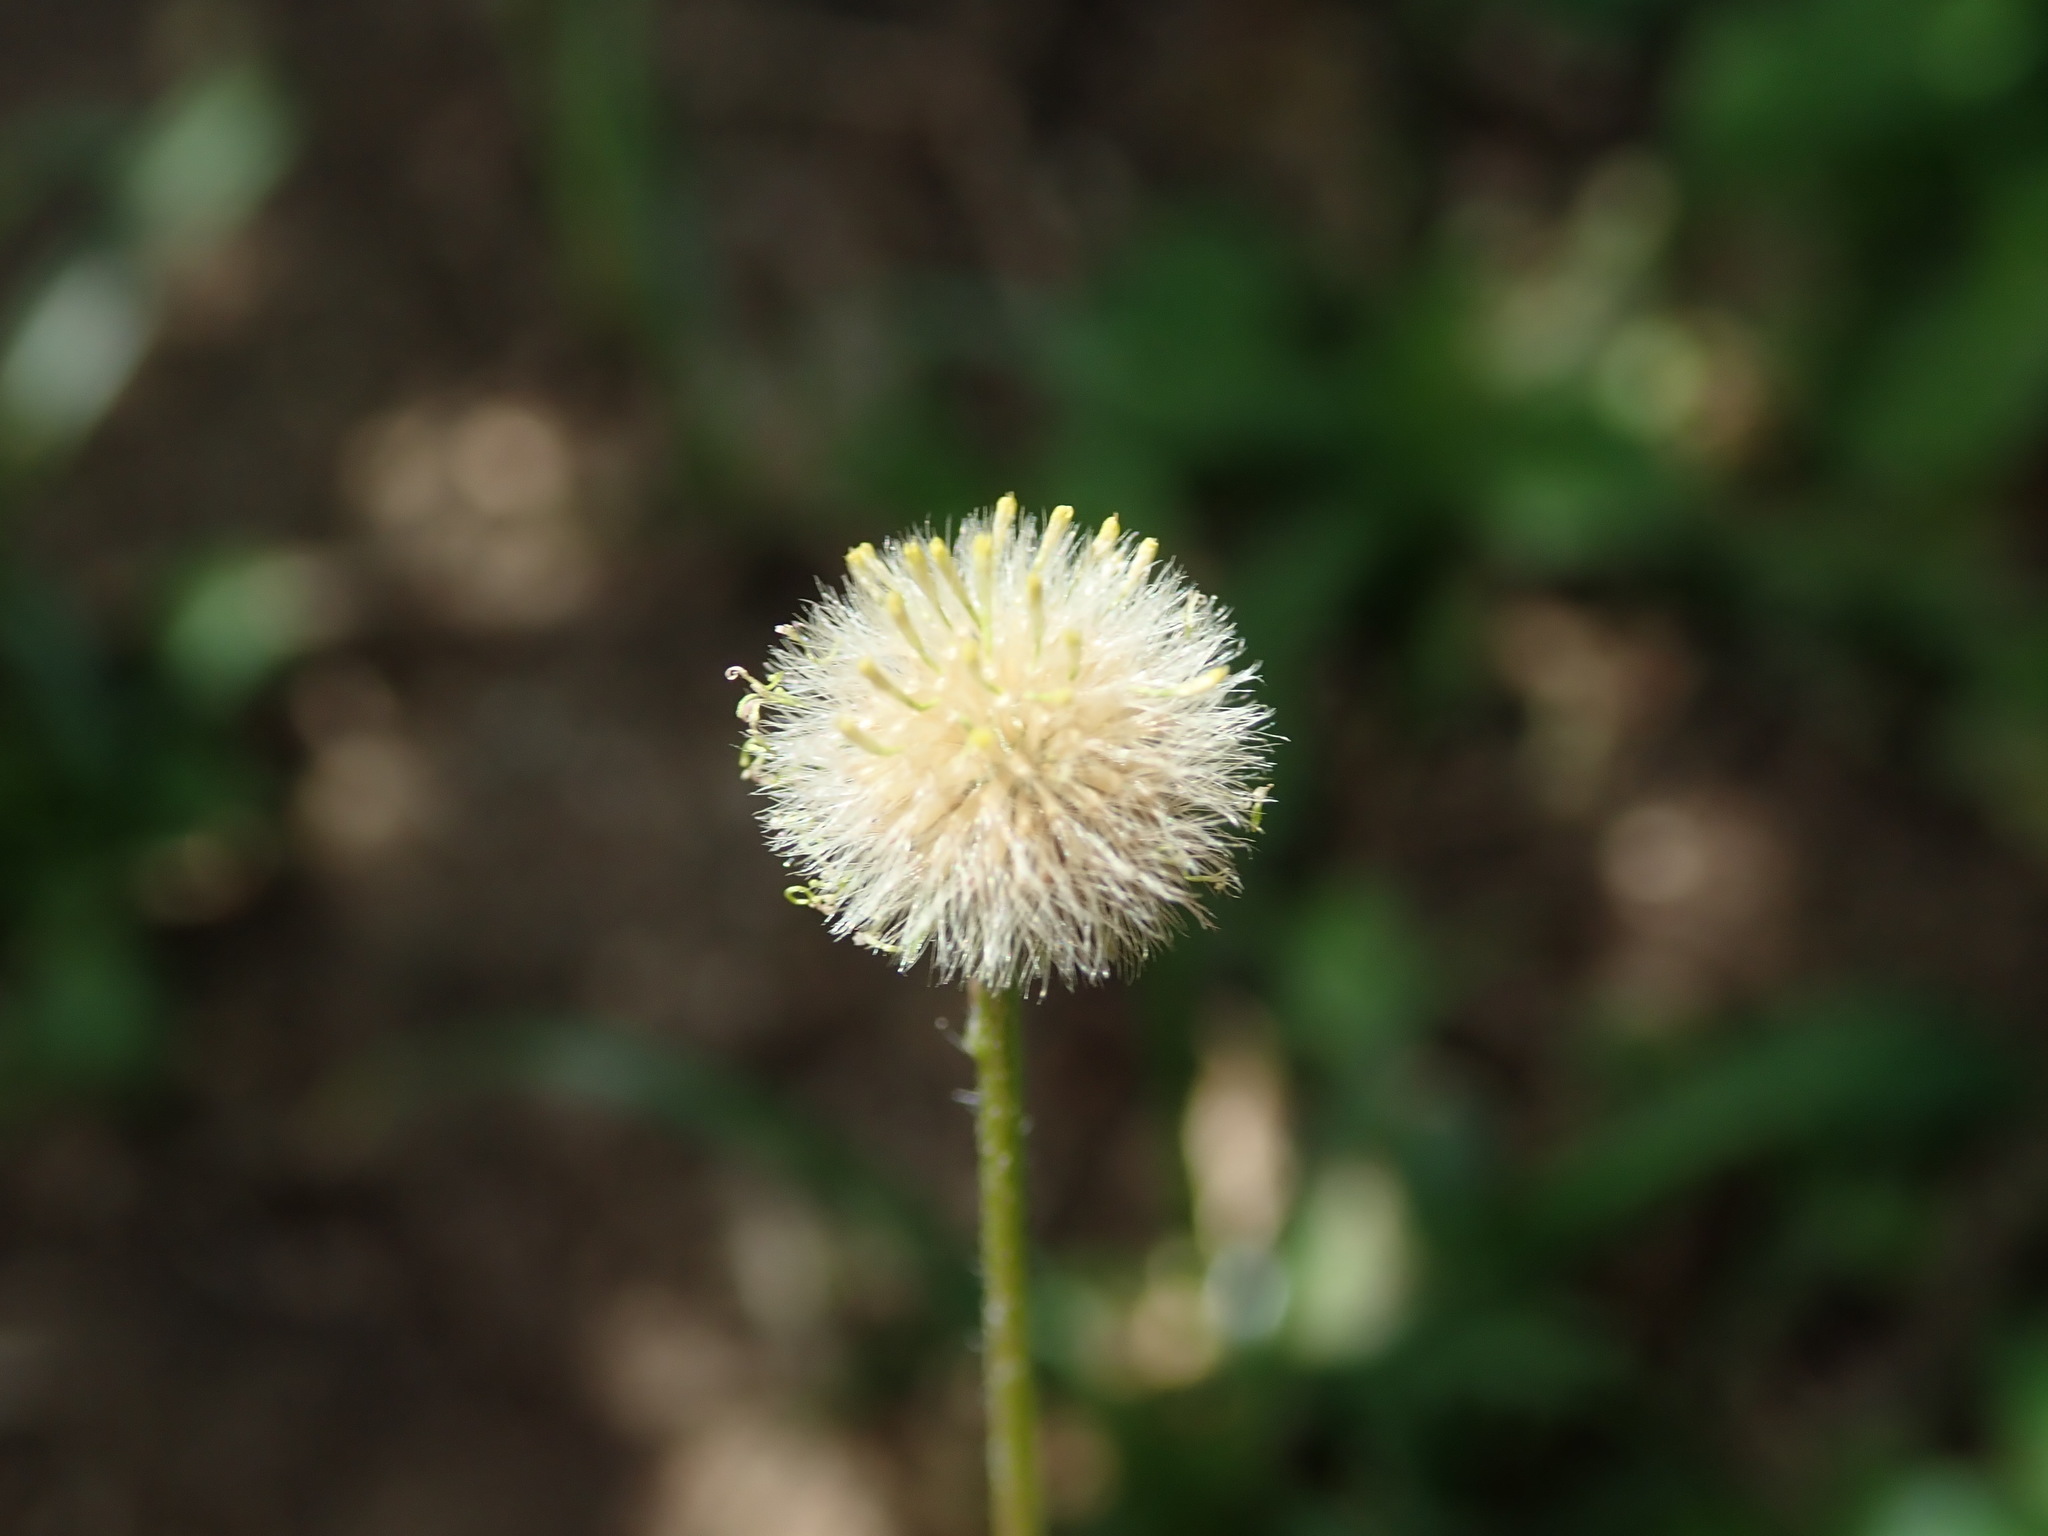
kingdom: Plantae
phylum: Tracheophyta
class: Magnoliopsida
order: Asterales
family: Asteraceae
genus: Erigeron
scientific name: Erigeron bellioides
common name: Bellorita
